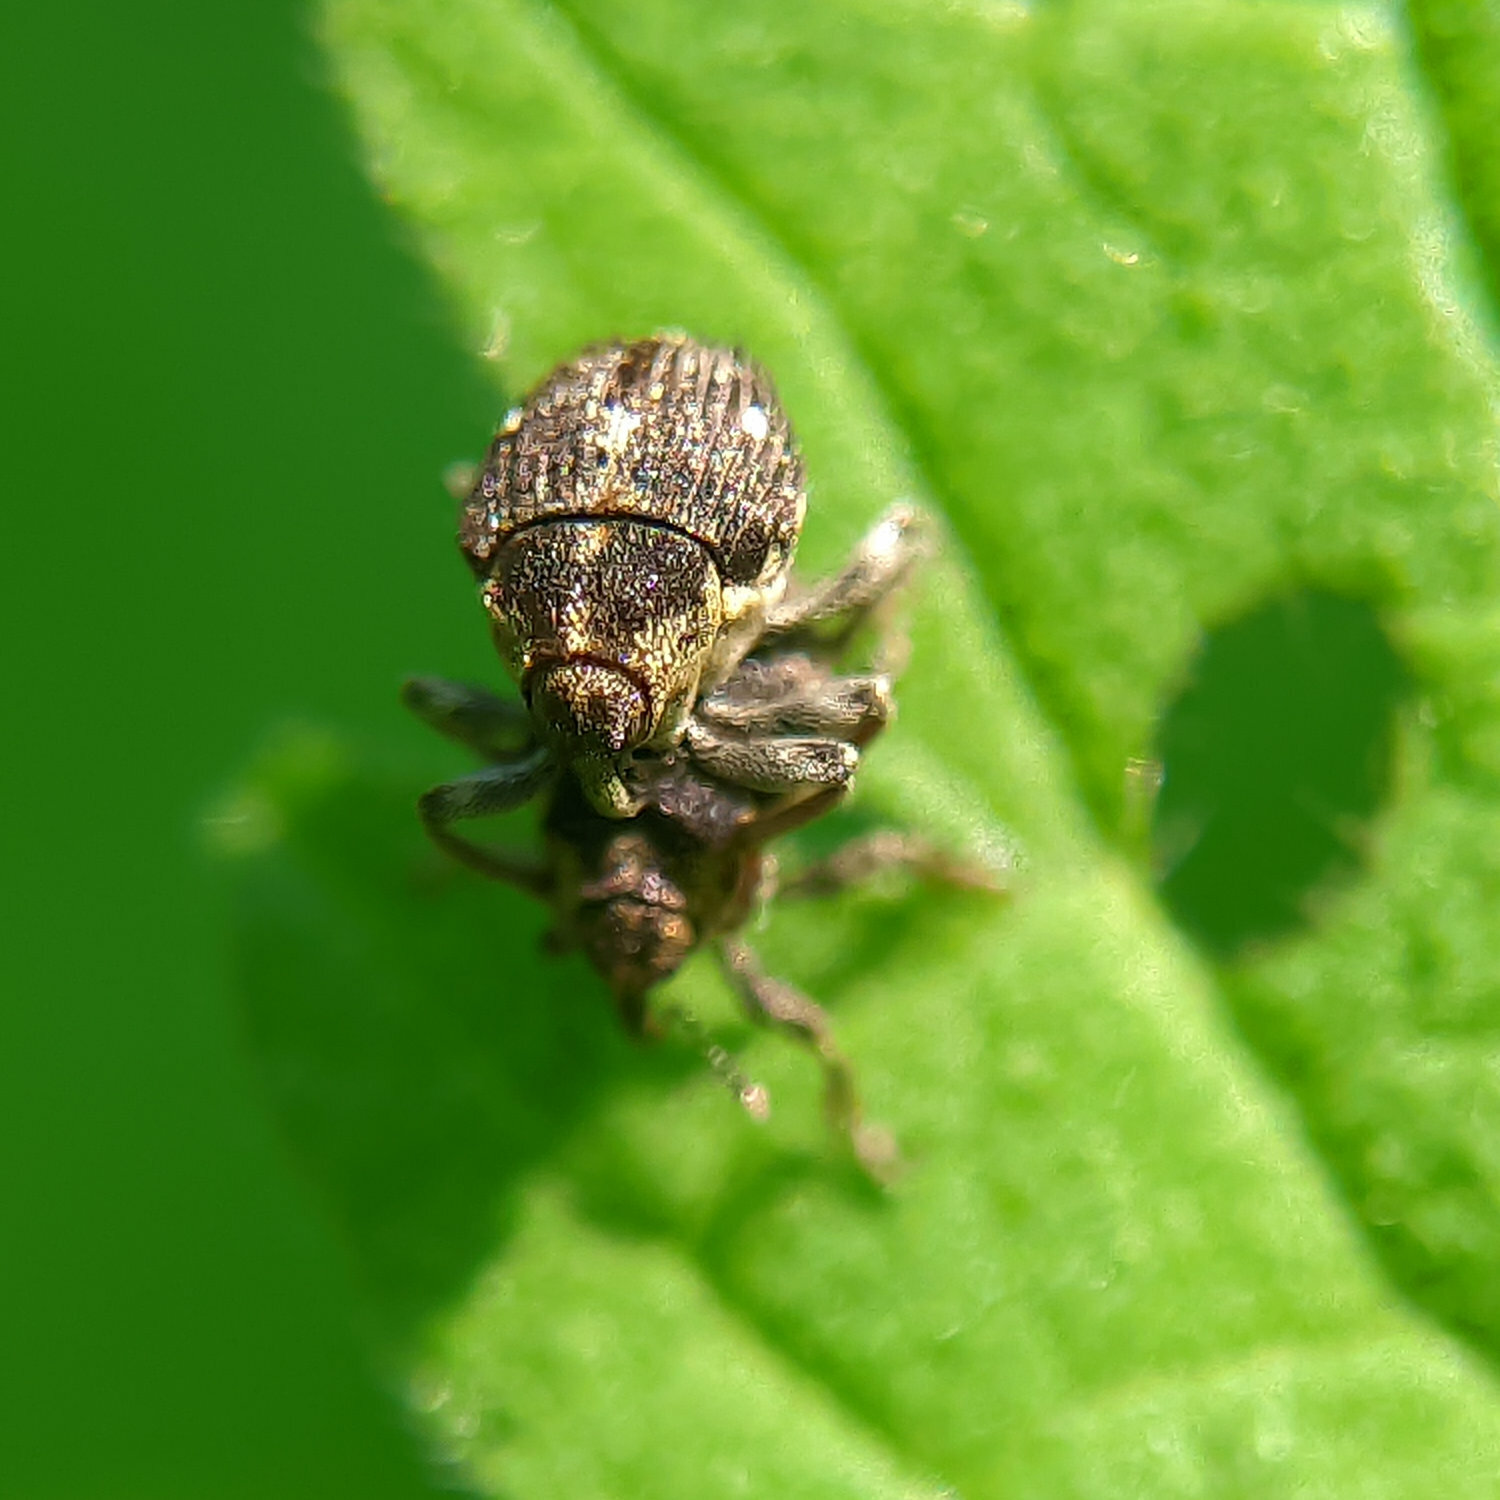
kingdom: Animalia
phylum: Arthropoda
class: Insecta
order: Coleoptera
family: Curculionidae
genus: Nedyus
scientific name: Nedyus quadrimaculatus
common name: Small nettle weevil
